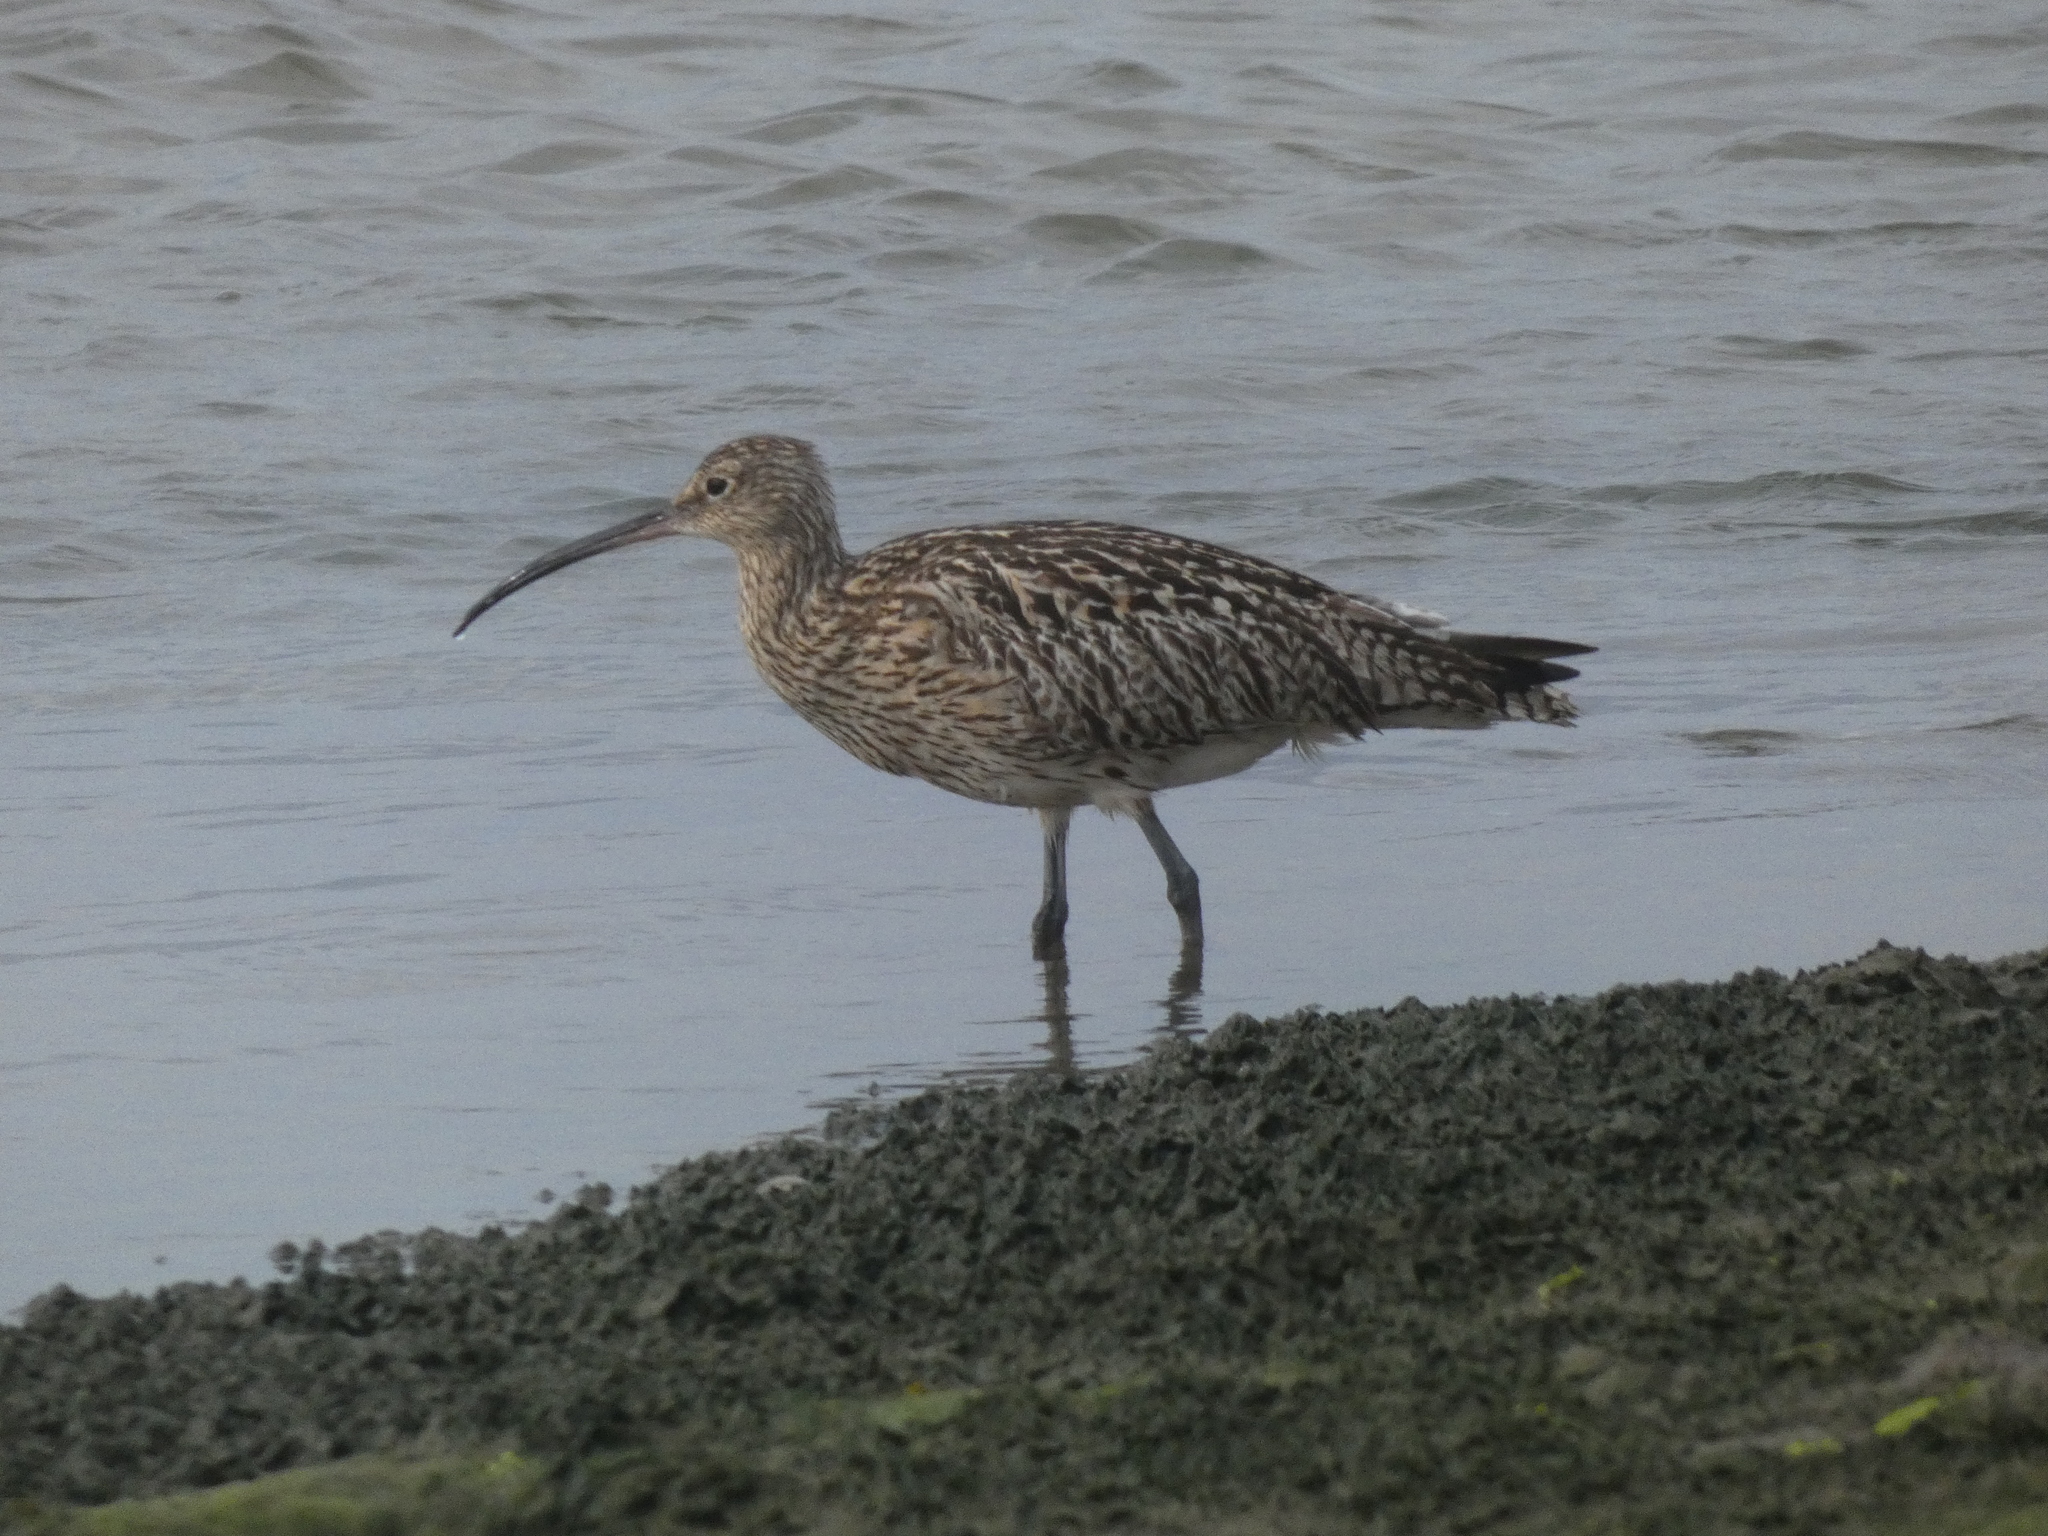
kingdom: Animalia
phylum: Chordata
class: Aves
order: Charadriiformes
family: Scolopacidae
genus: Numenius
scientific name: Numenius arquata
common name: Eurasian curlew
